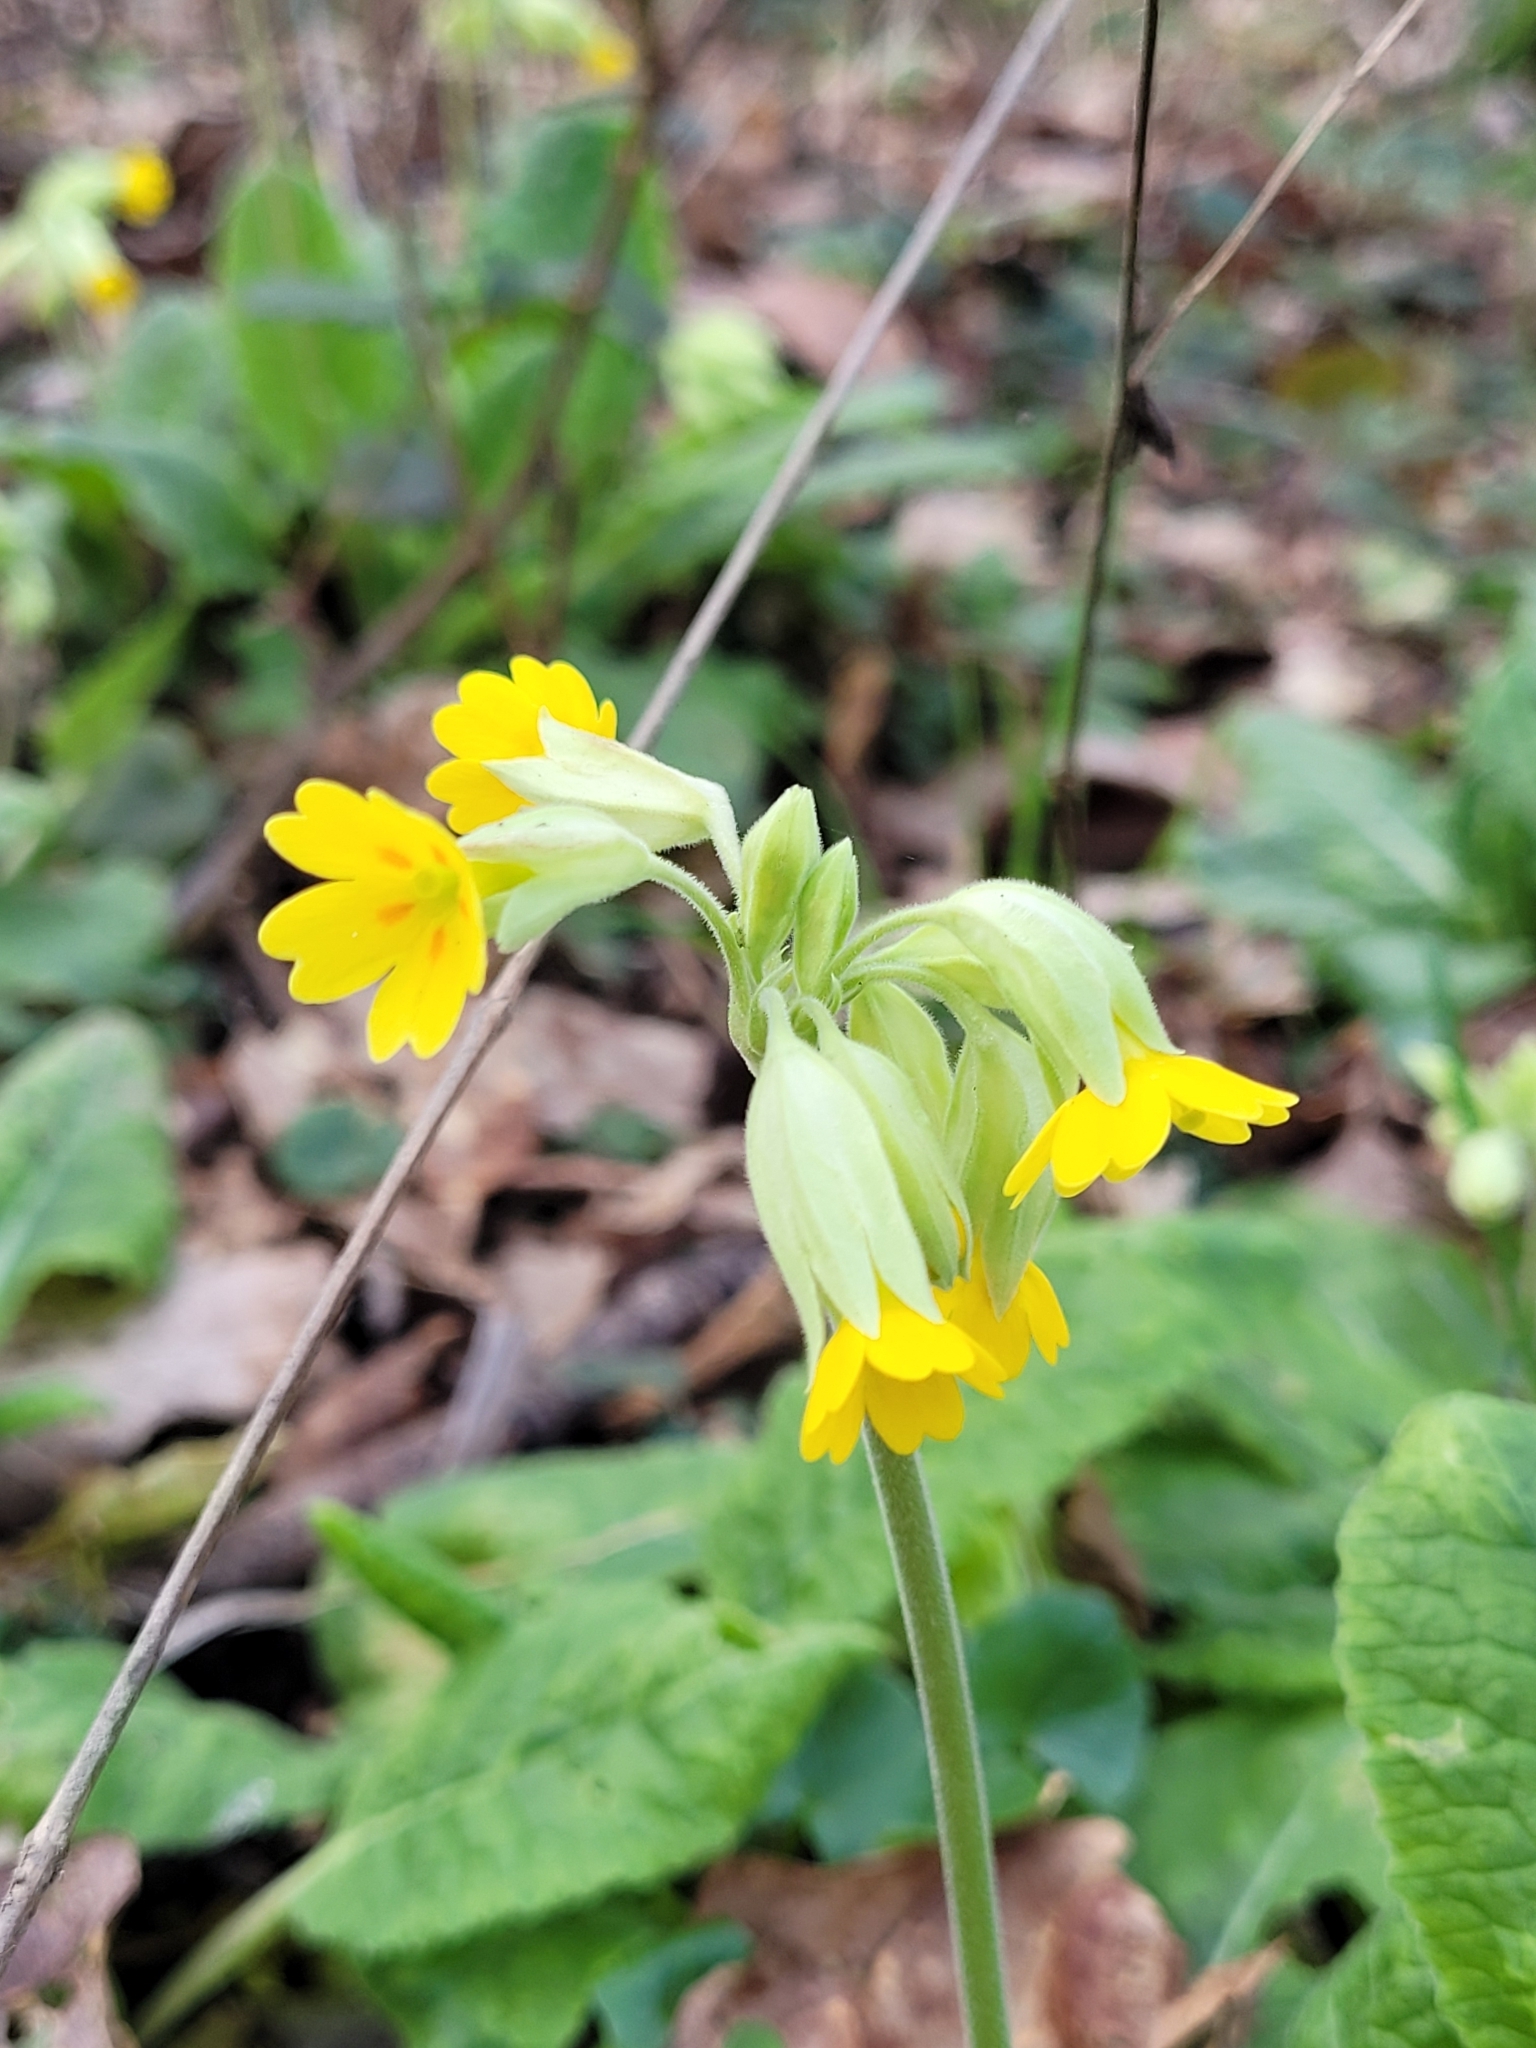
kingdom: Plantae
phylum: Tracheophyta
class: Magnoliopsida
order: Ericales
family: Primulaceae
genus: Primula
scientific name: Primula veris
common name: Cowslip
